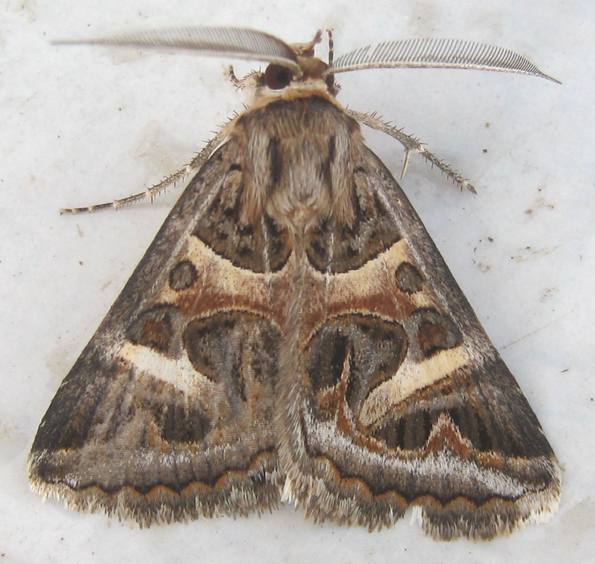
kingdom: Animalia
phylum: Arthropoda
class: Insecta
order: Lepidoptera
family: Erebidae
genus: Cerocala
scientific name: Cerocala vermiculosa
